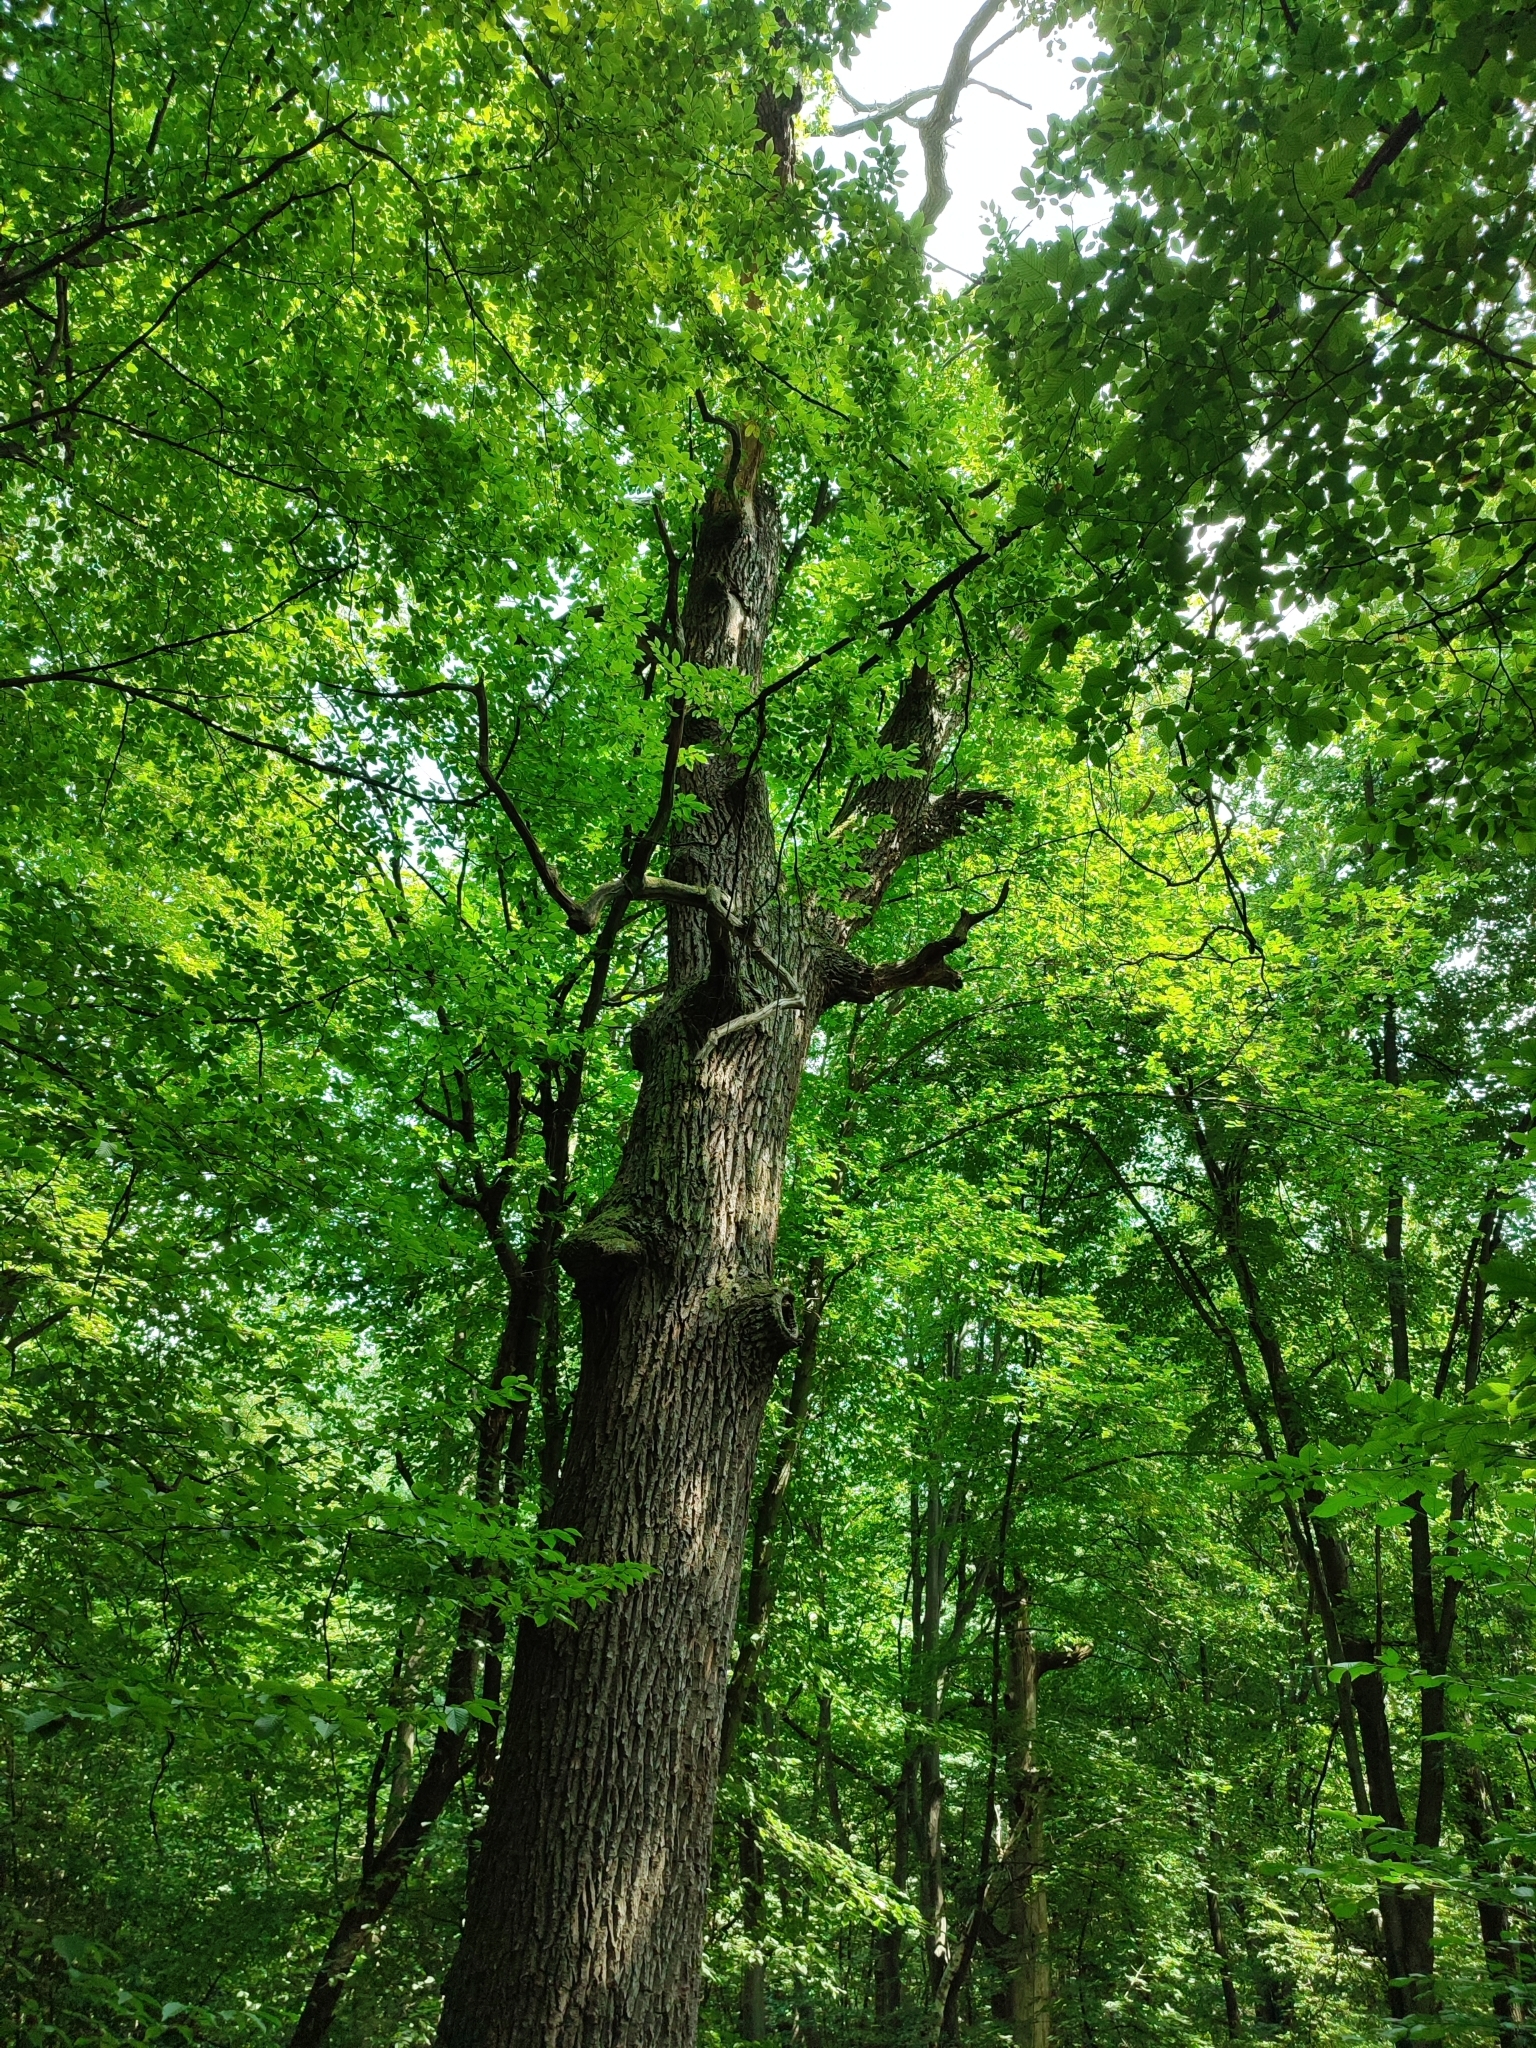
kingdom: Plantae
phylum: Tracheophyta
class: Magnoliopsida
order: Fagales
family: Fagaceae
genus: Quercus
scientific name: Quercus robur
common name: Pedunculate oak
